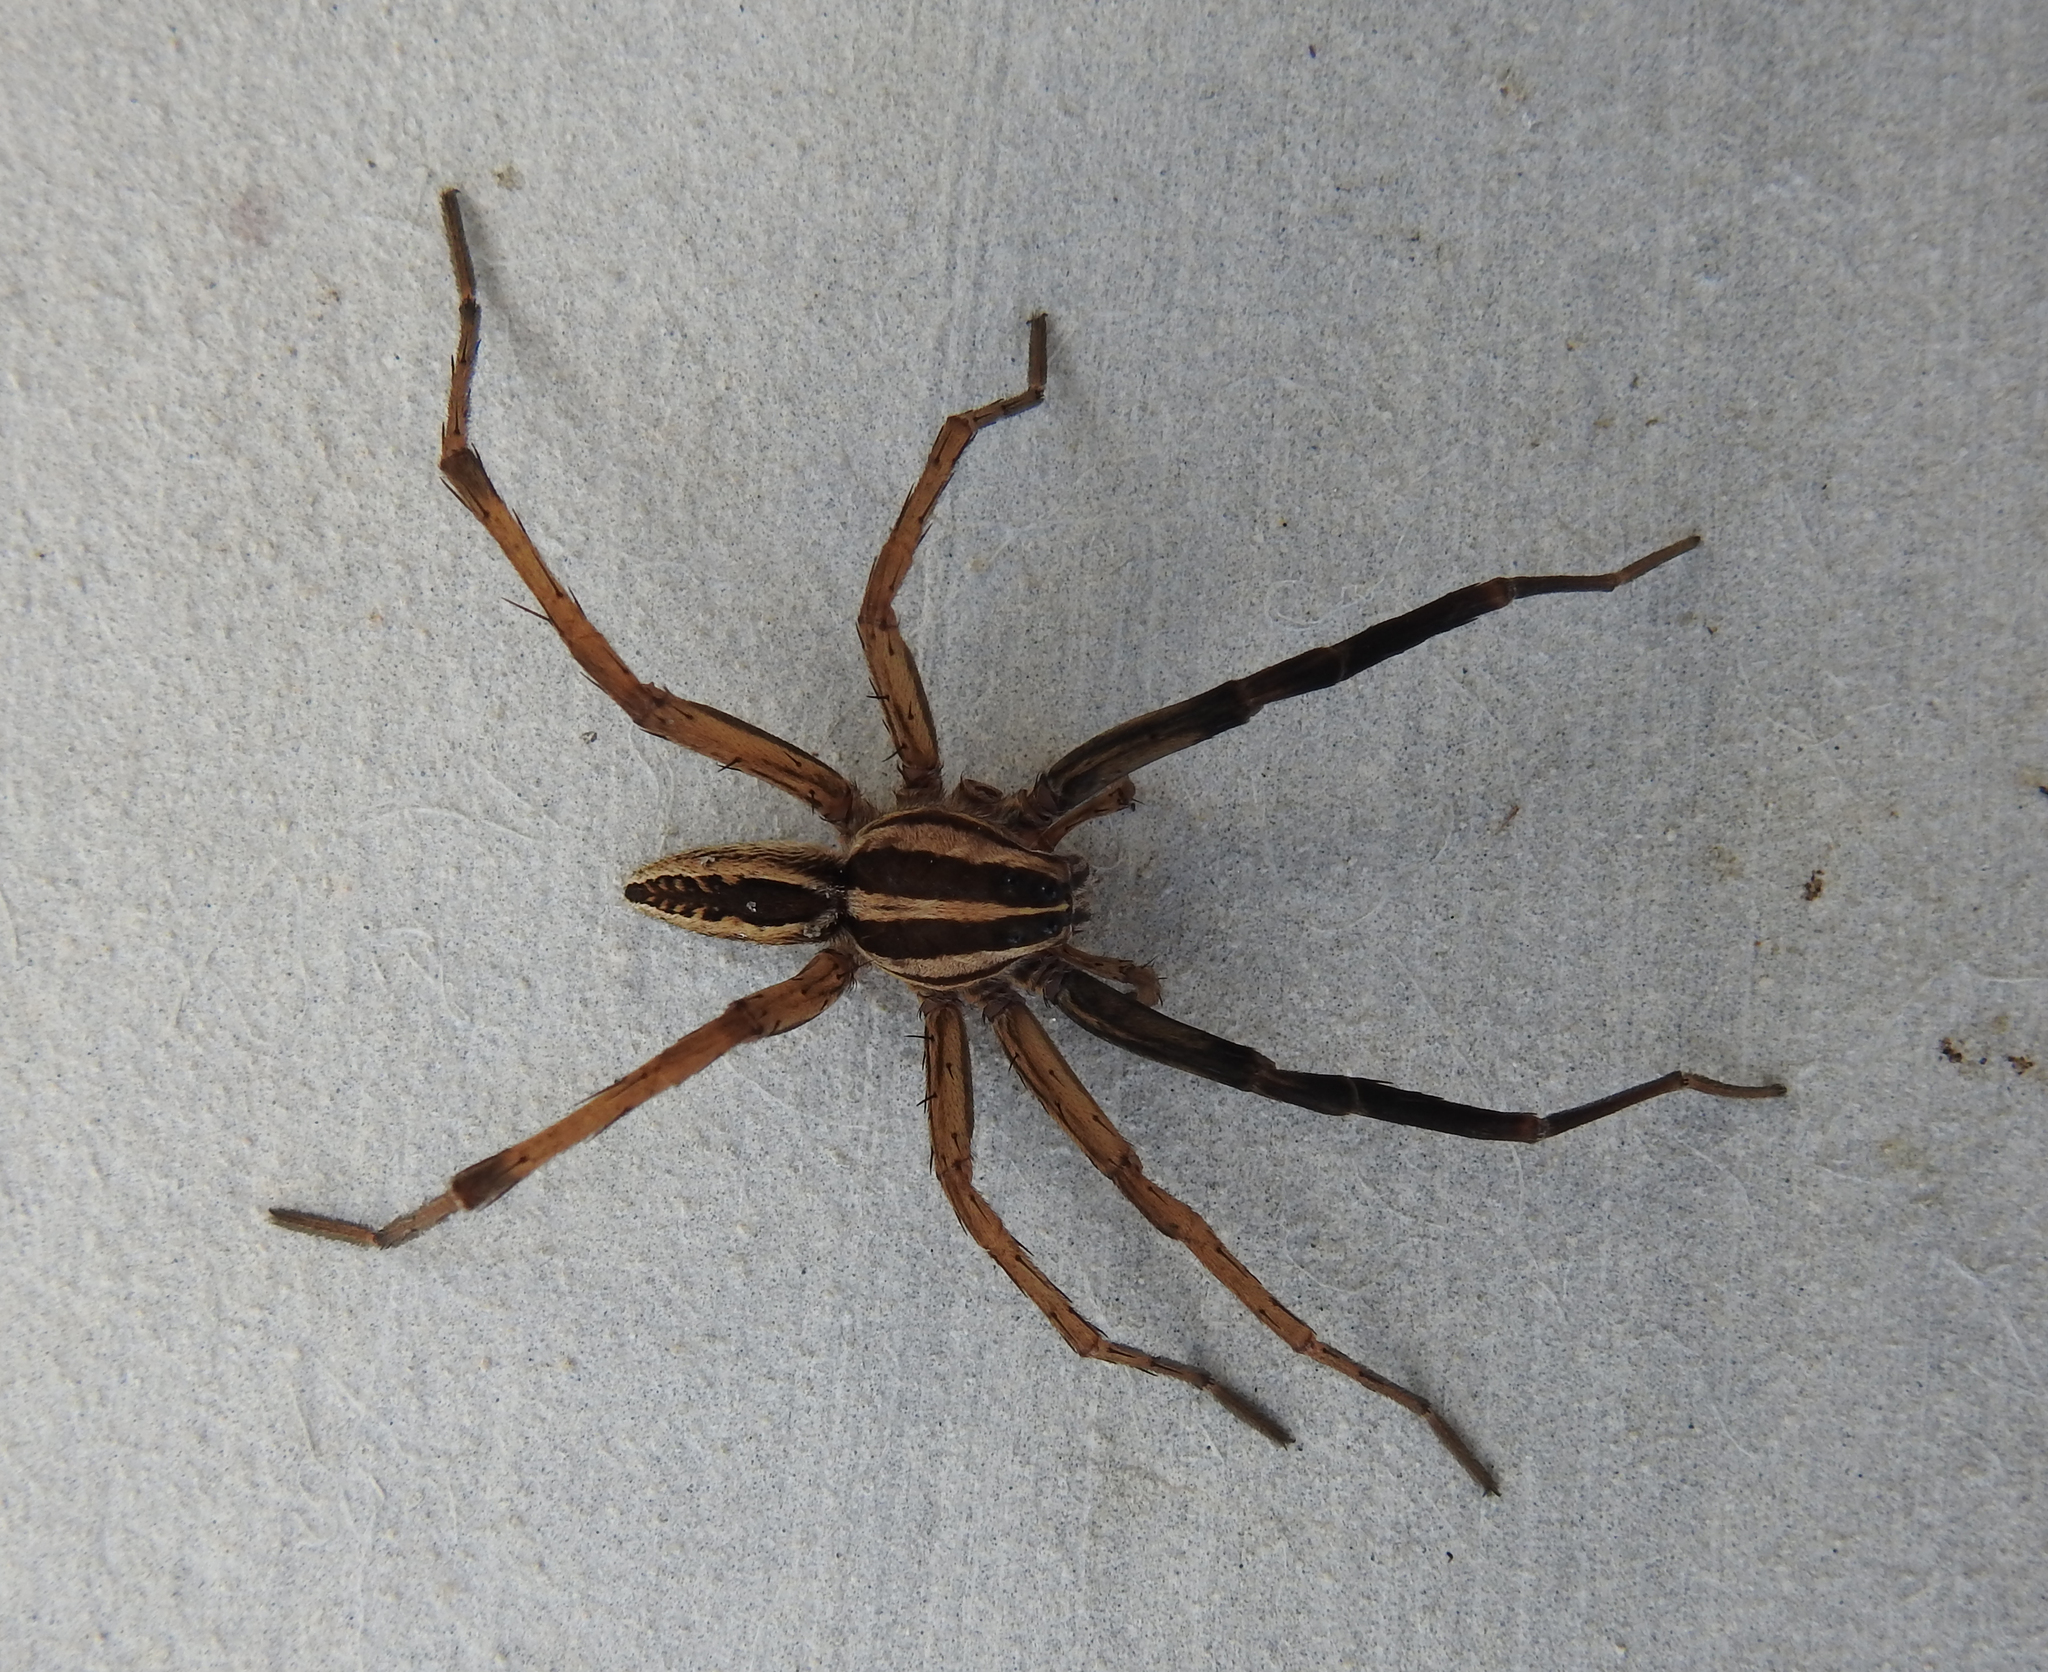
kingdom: Animalia
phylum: Arthropoda
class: Arachnida
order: Araneae
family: Lycosidae
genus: Rabidosa
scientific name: Rabidosa rabida
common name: Rabid wolf spider
